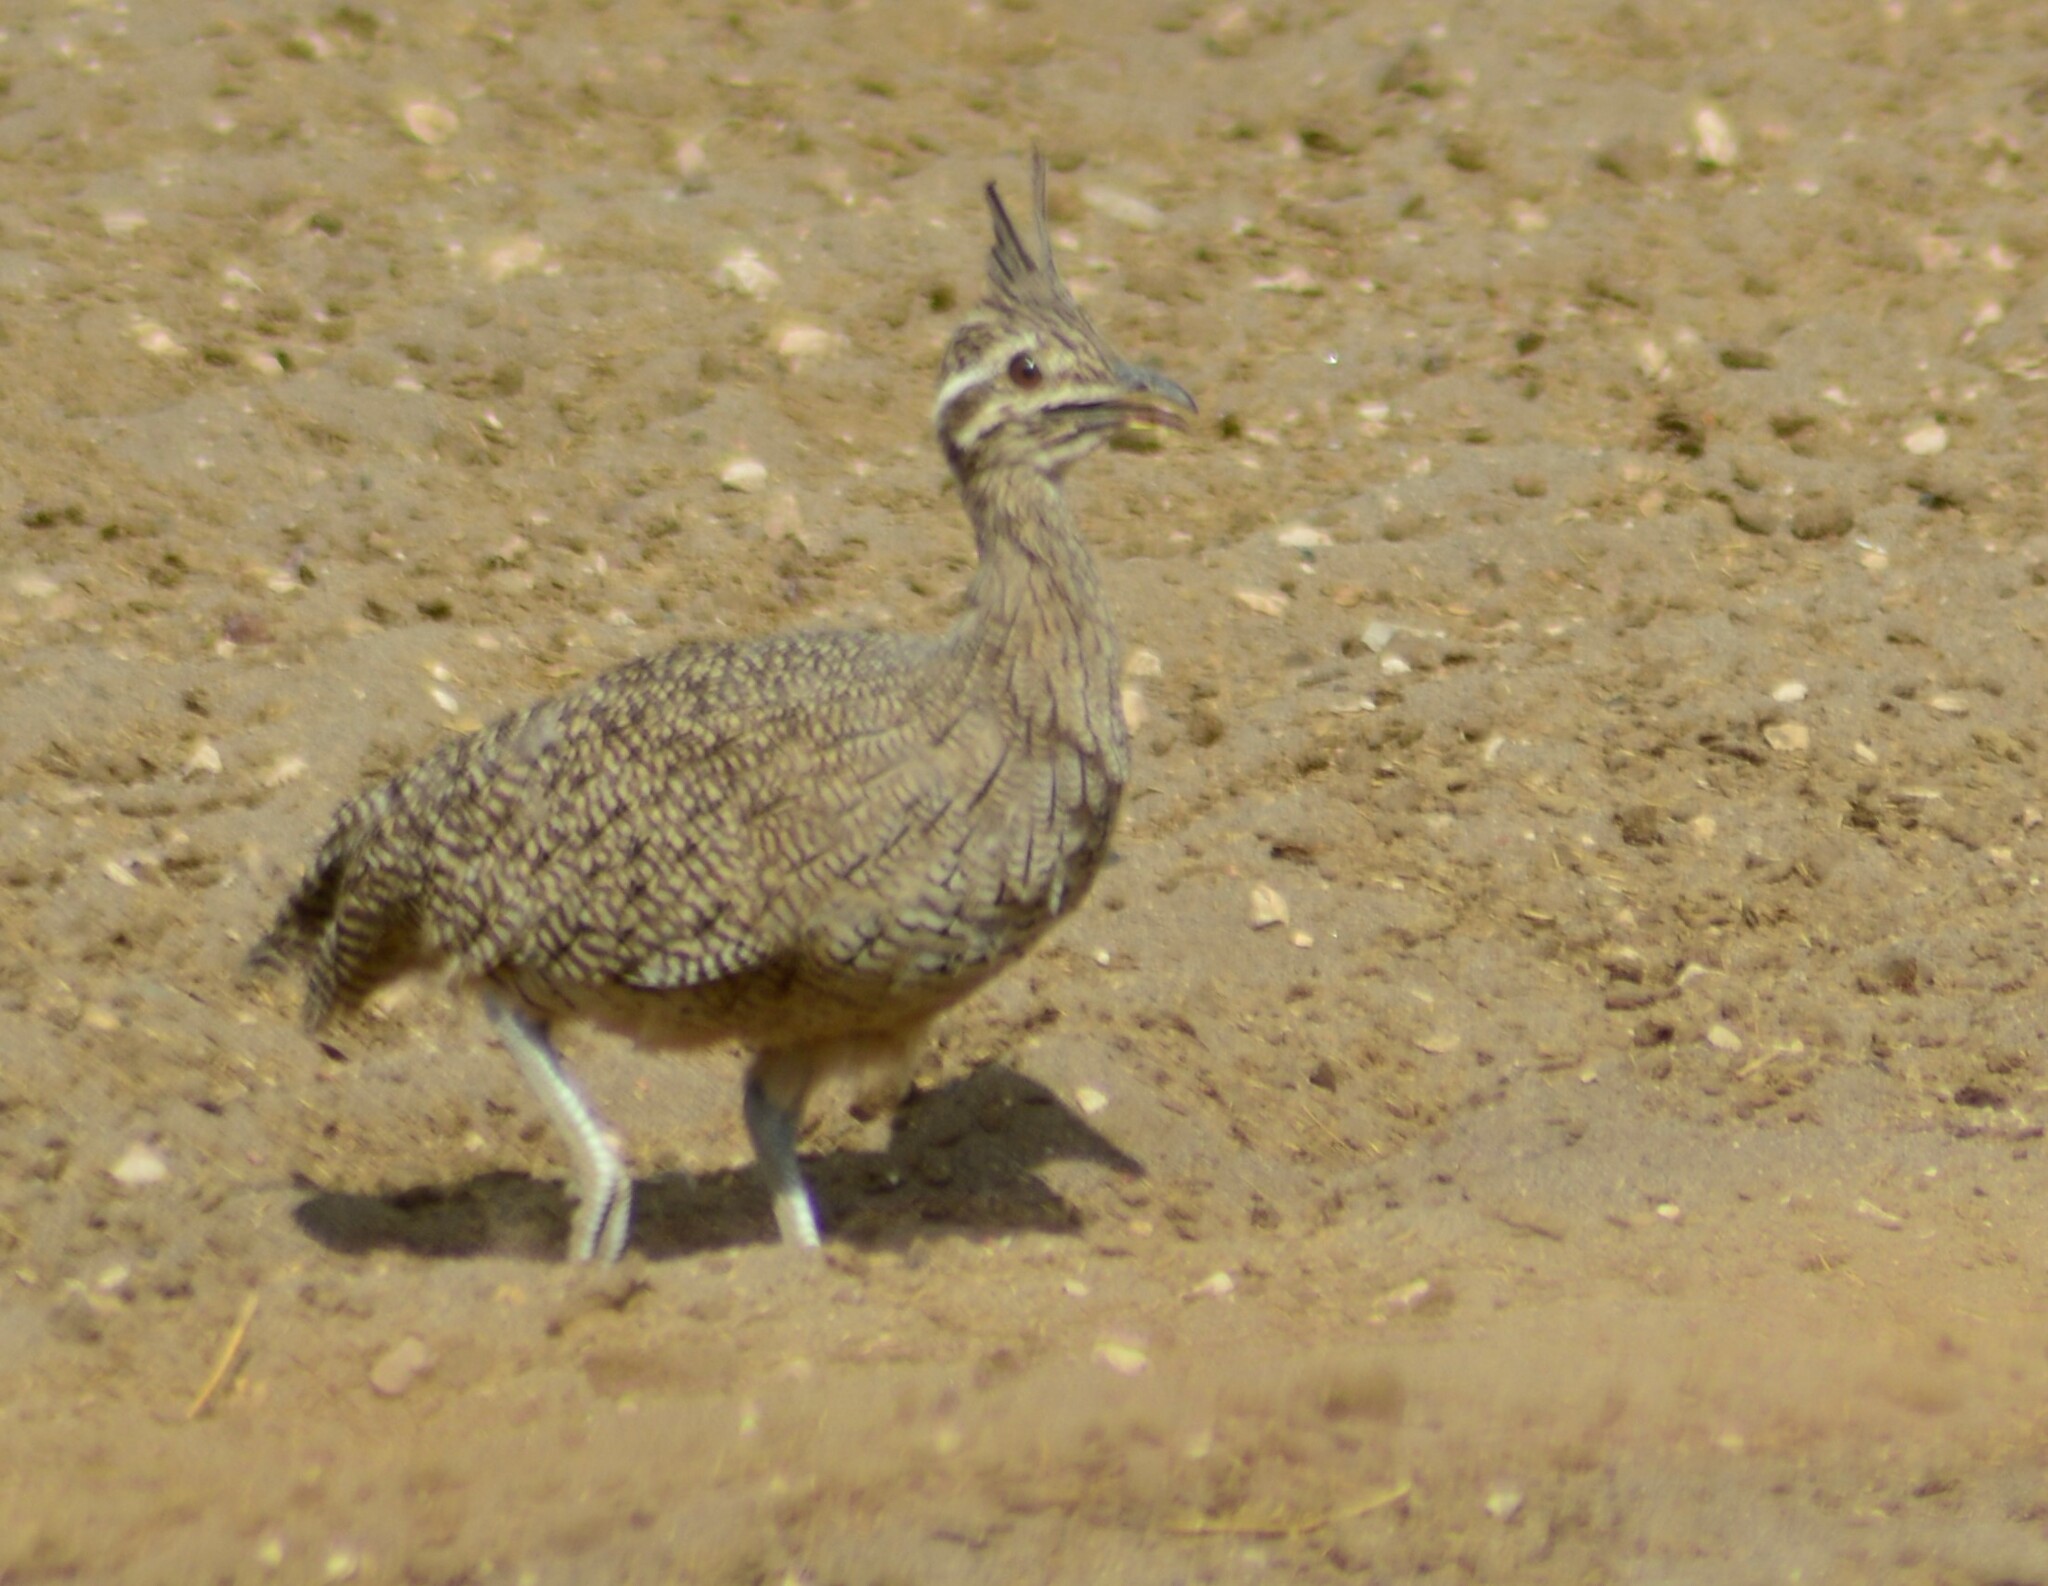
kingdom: Animalia
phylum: Chordata
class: Aves
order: Tinamiformes
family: Tinamidae
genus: Eudromia
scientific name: Eudromia elegans
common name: Elegant crested tinamou
